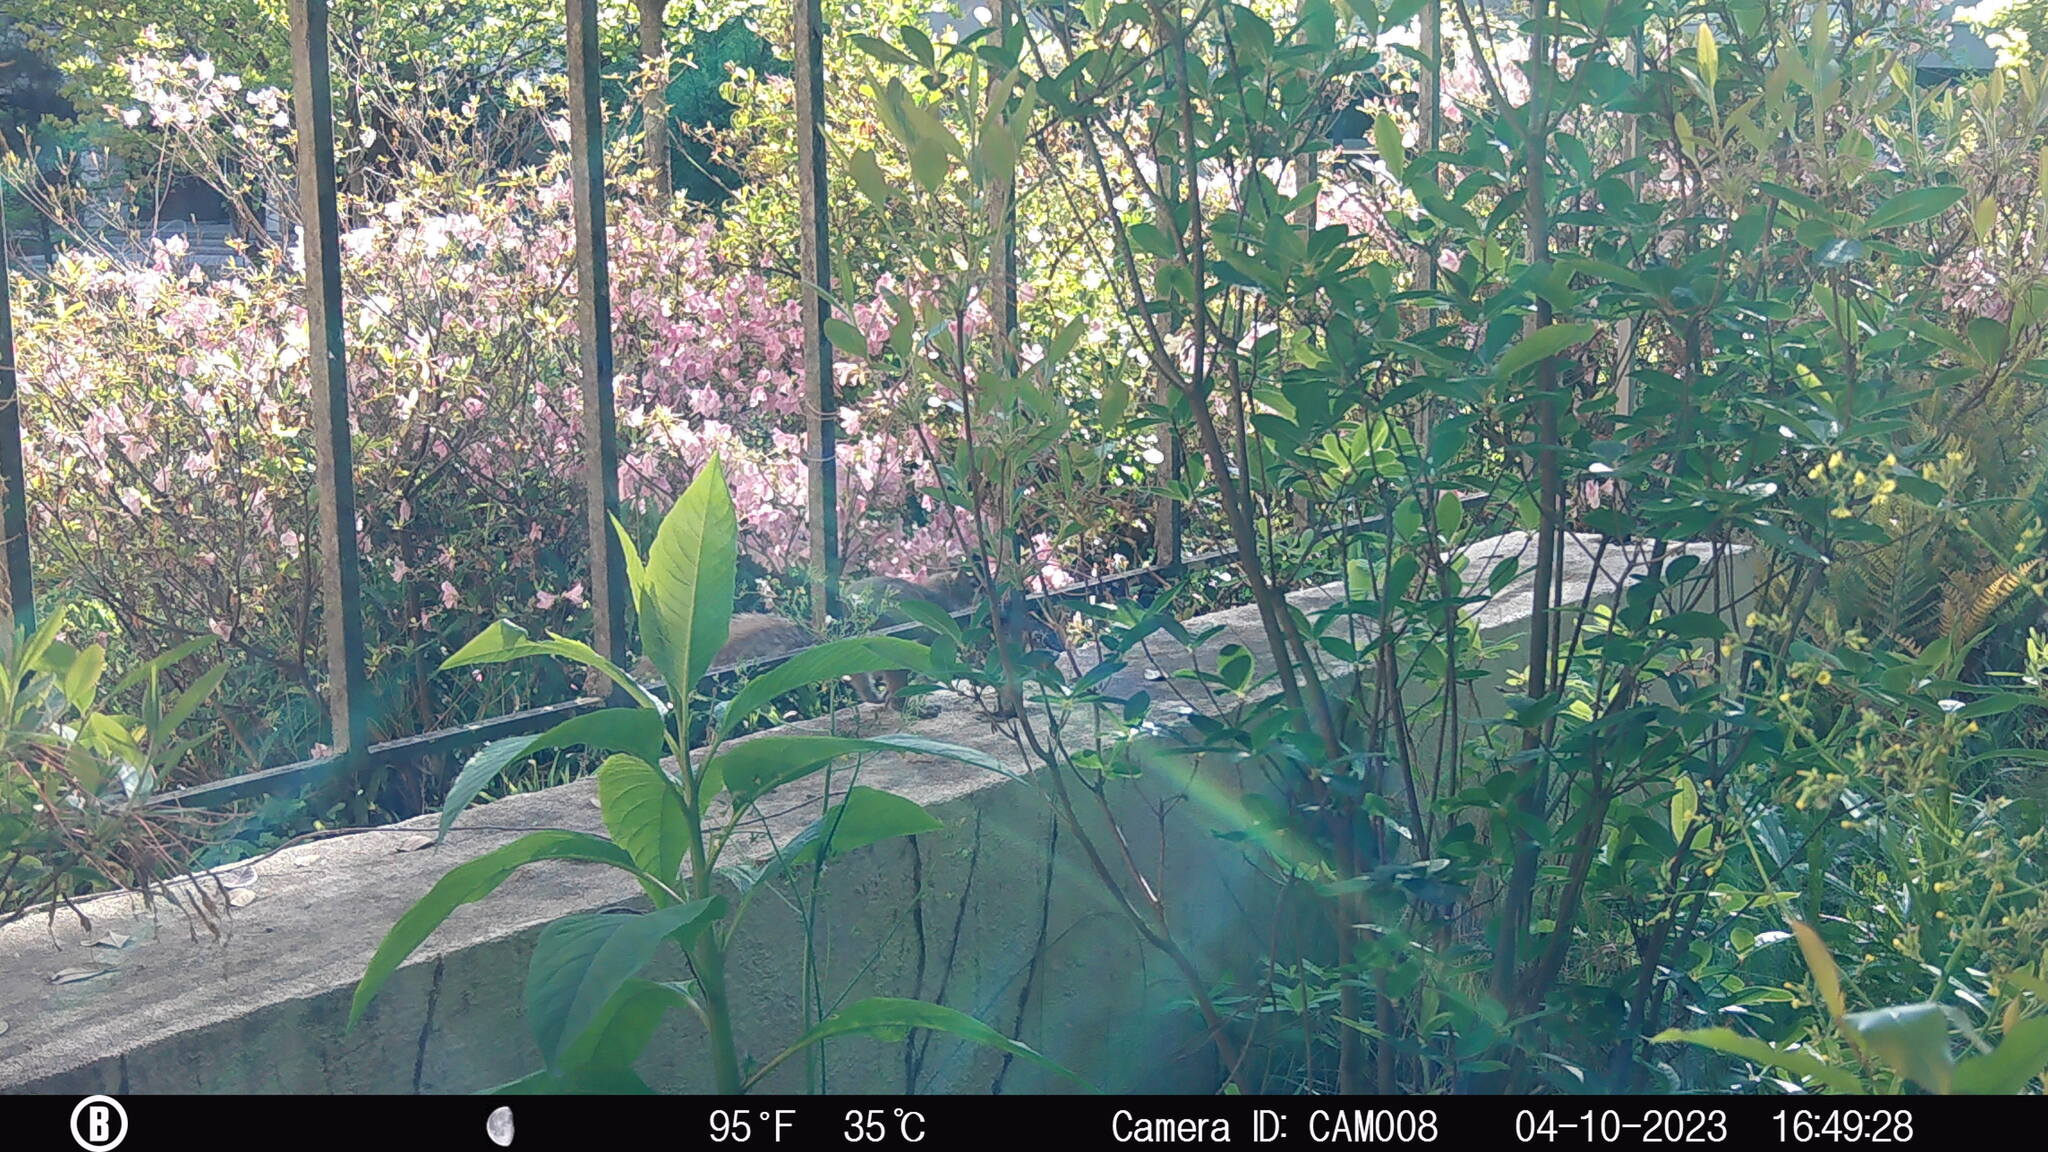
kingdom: Animalia
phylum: Chordata
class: Mammalia
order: Rodentia
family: Sciuridae
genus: Sciurus
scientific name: Sciurus carolinensis
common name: Eastern gray squirrel
